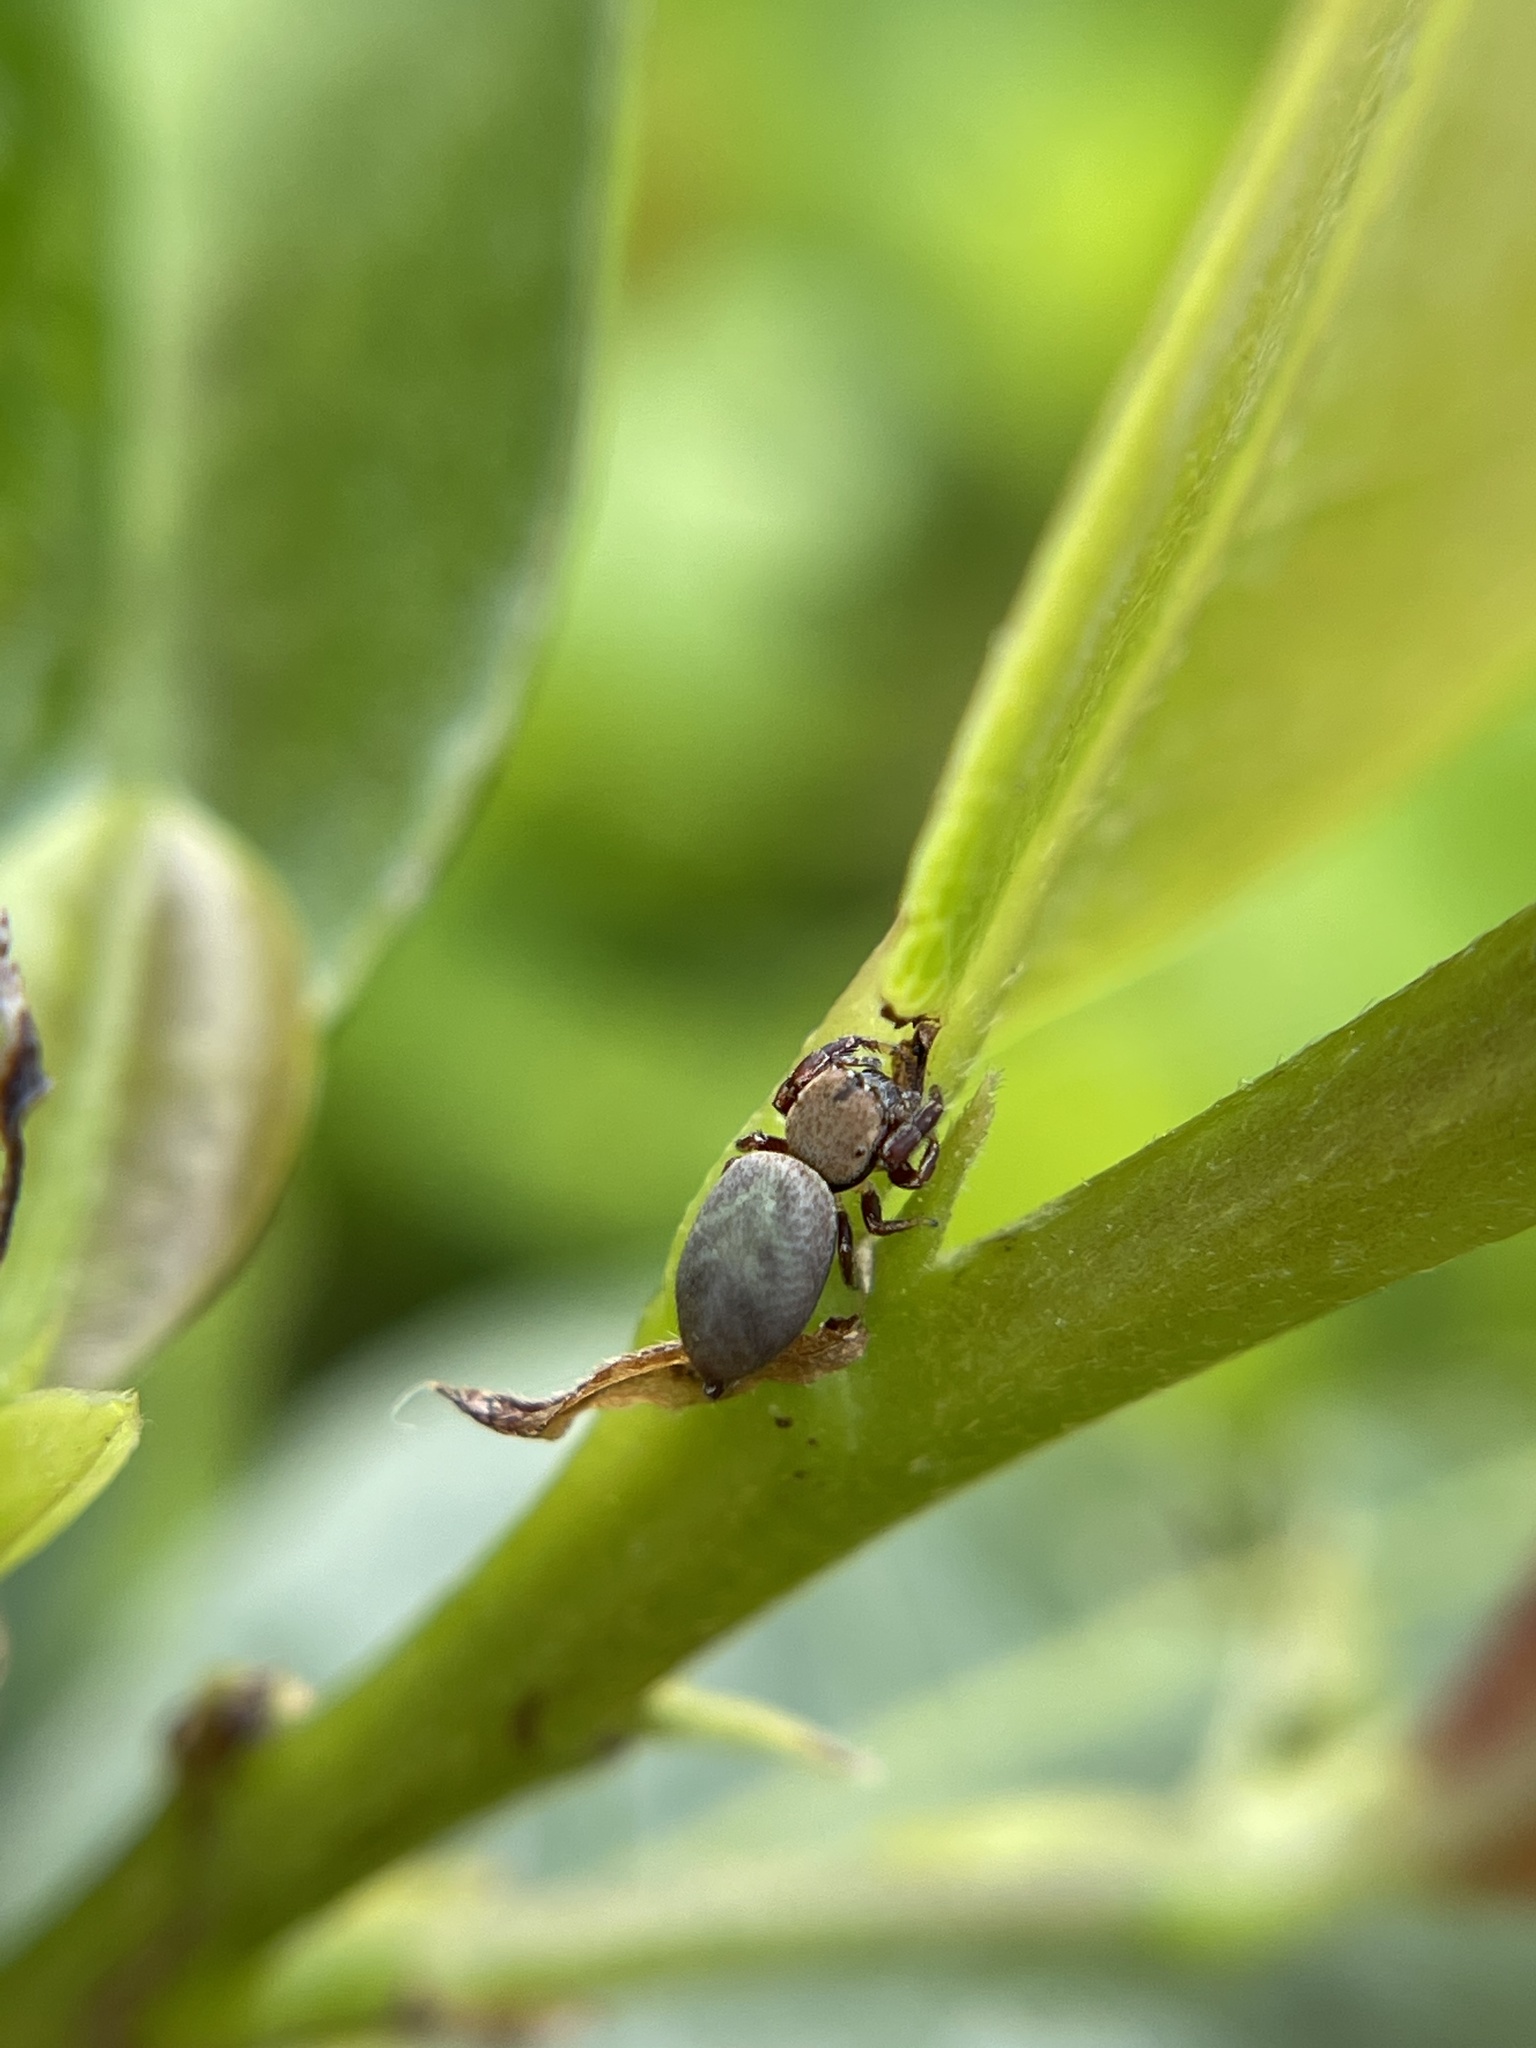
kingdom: Animalia
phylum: Arthropoda
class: Arachnida
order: Araneae
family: Salticidae
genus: Beata
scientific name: Beata wickhami
